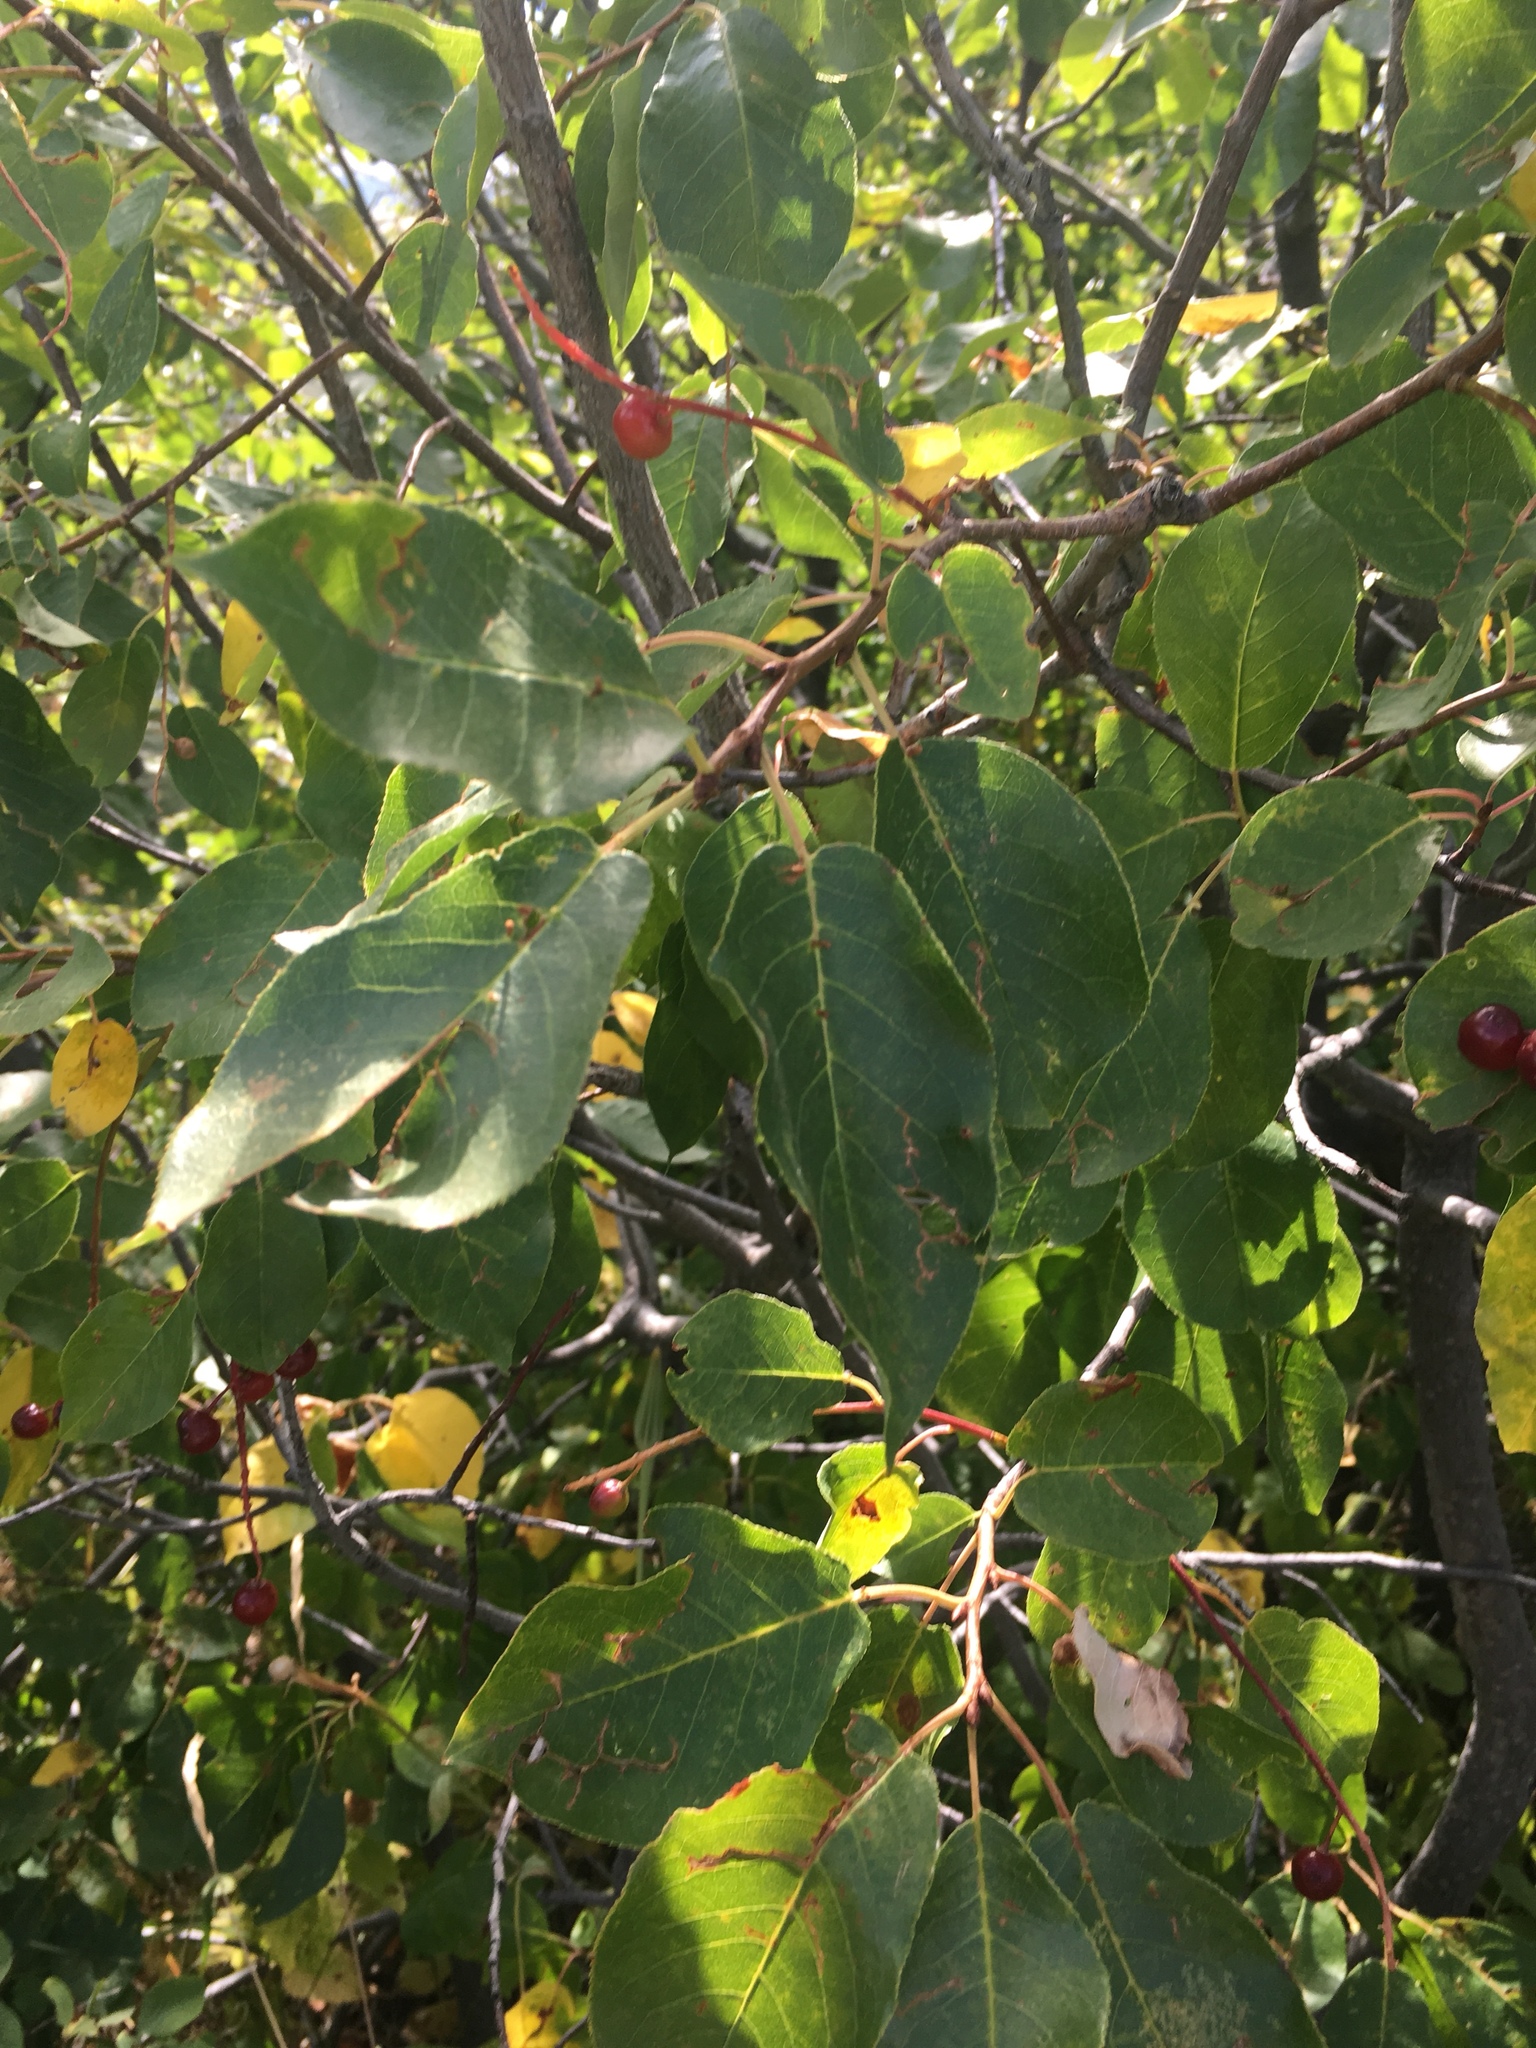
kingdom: Plantae
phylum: Tracheophyta
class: Magnoliopsida
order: Rosales
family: Rosaceae
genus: Prunus
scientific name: Prunus virginiana
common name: Chokecherry
